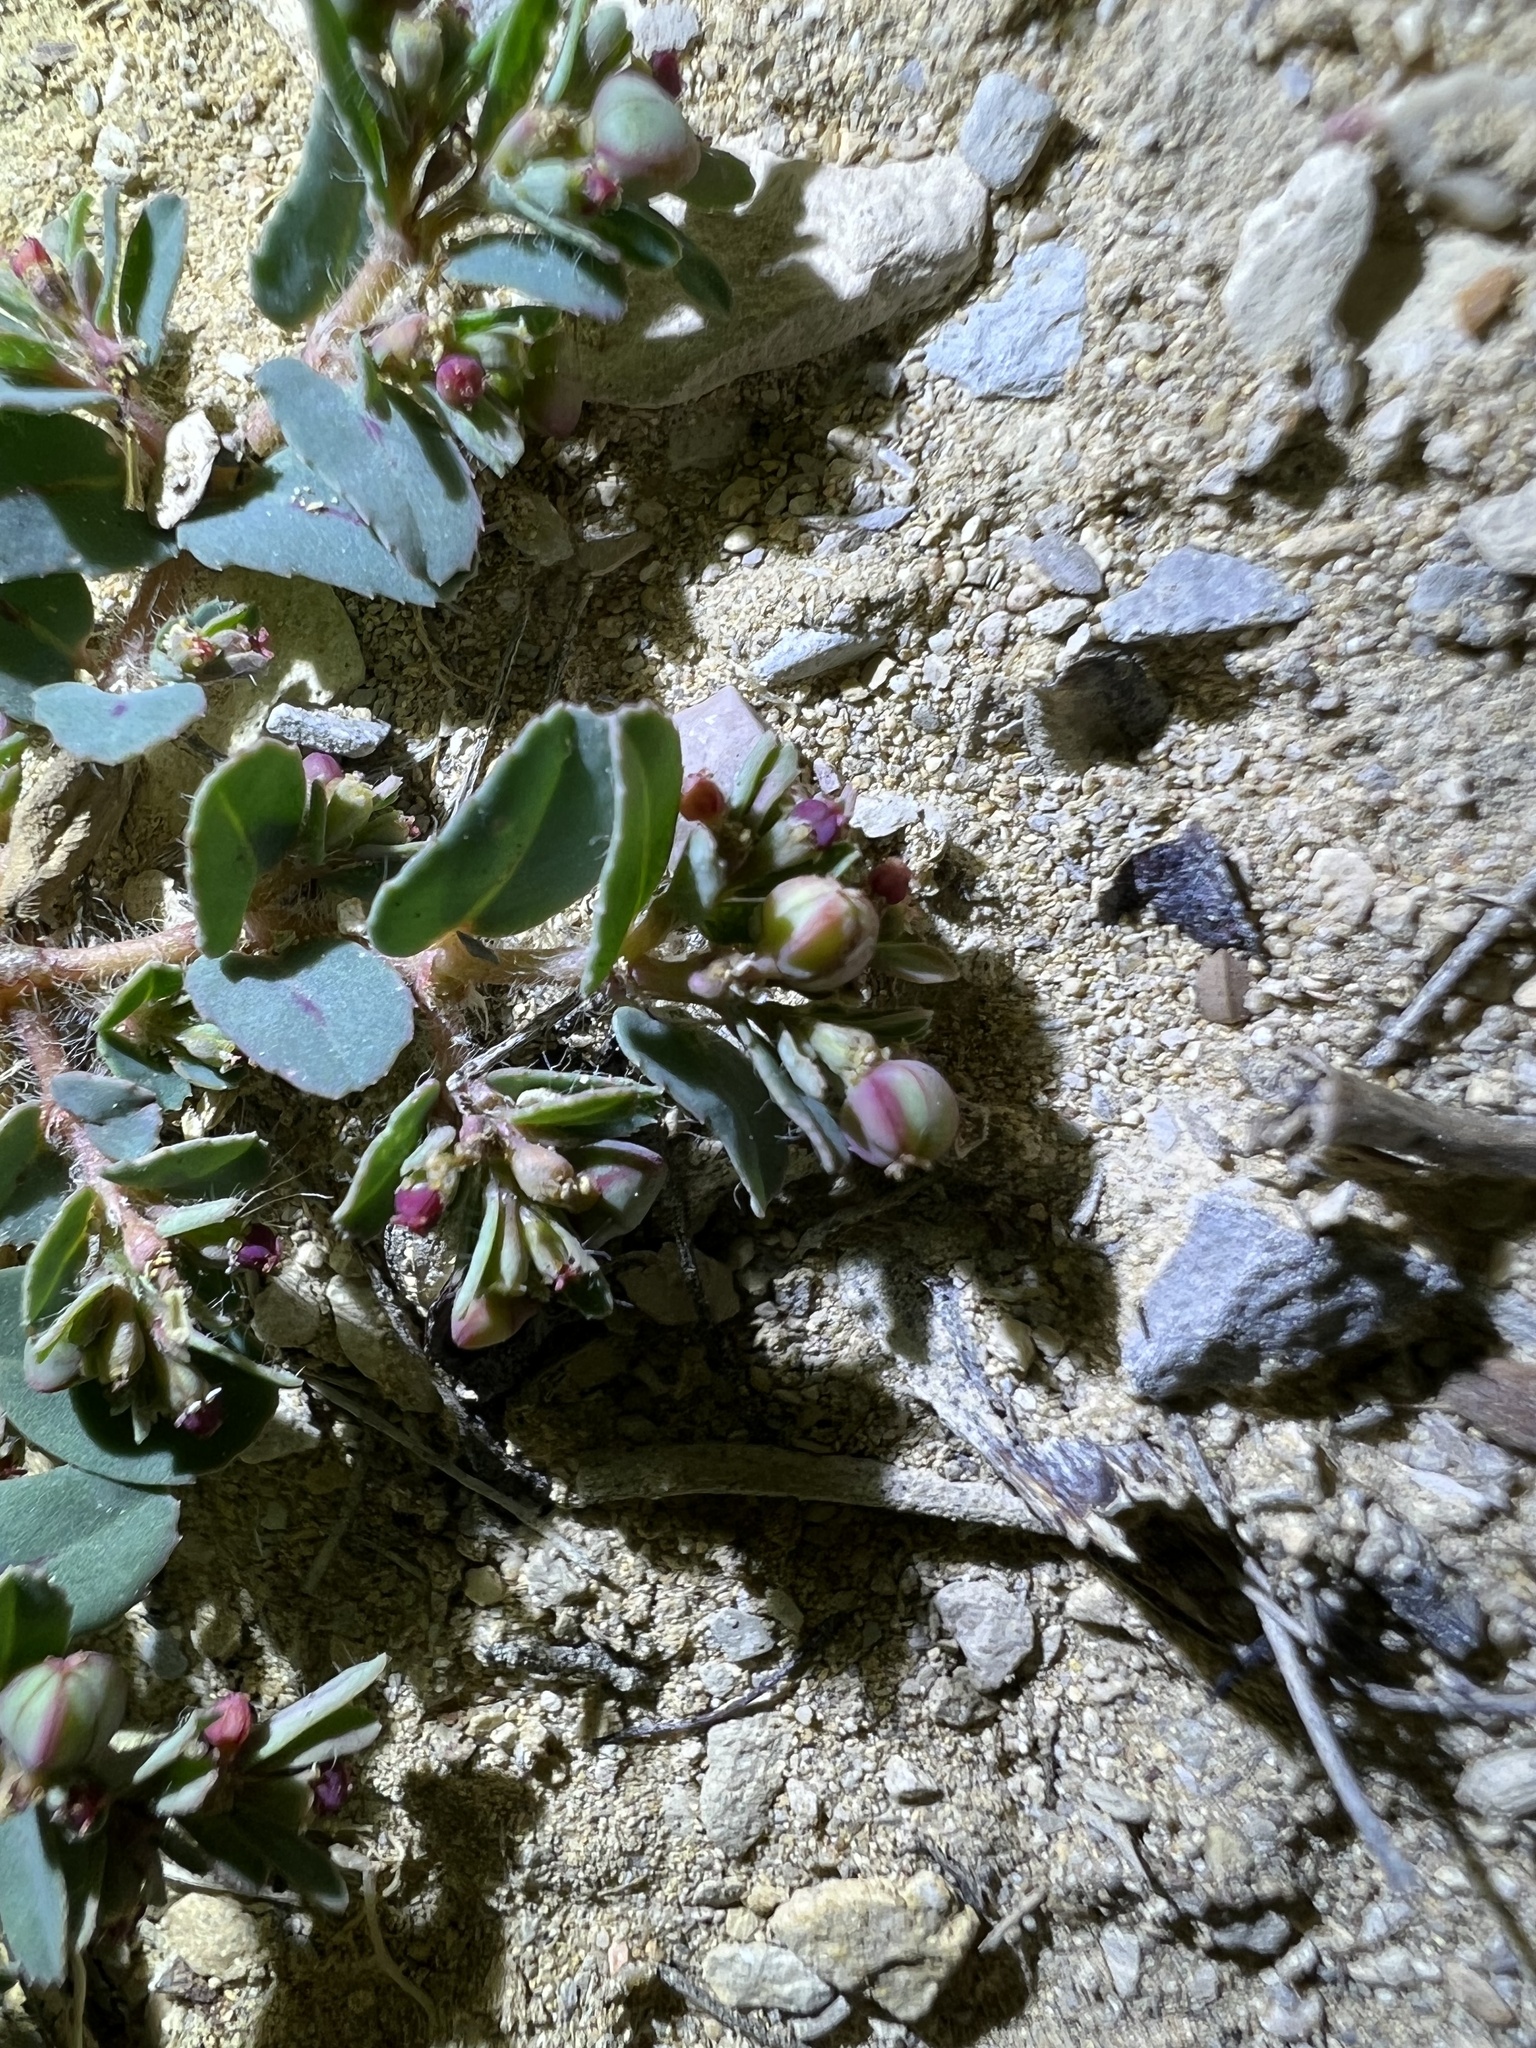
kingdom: Plantae
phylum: Tracheophyta
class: Magnoliopsida
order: Malpighiales
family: Euphorbiaceae
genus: Euphorbia
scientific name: Euphorbia serrula
